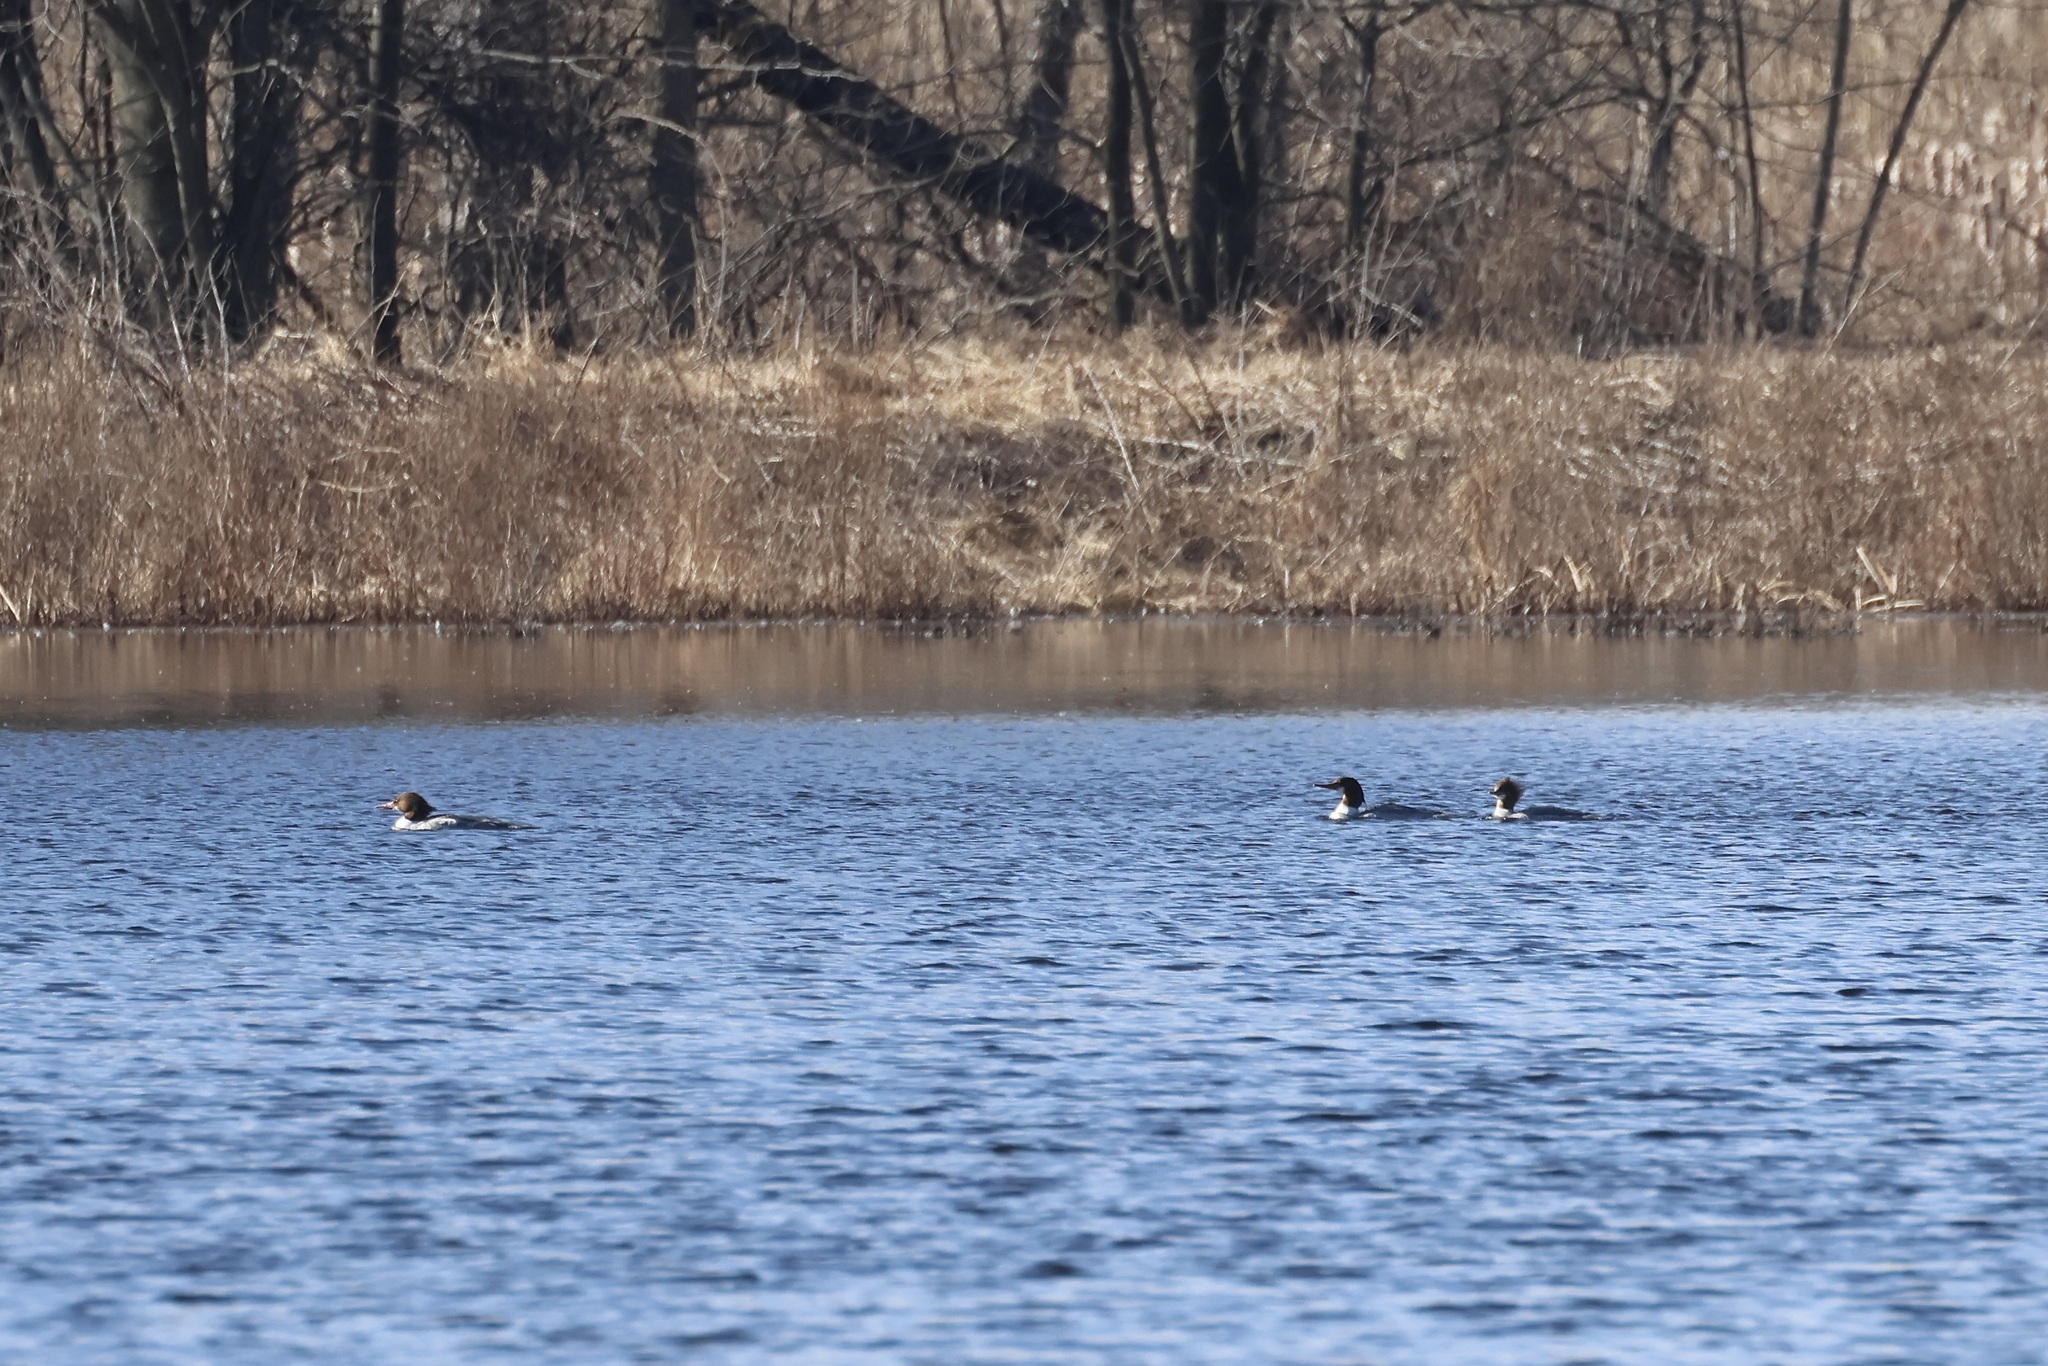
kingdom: Animalia
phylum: Chordata
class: Aves
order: Anseriformes
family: Anatidae
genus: Mergus
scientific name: Mergus merganser
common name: Common merganser
